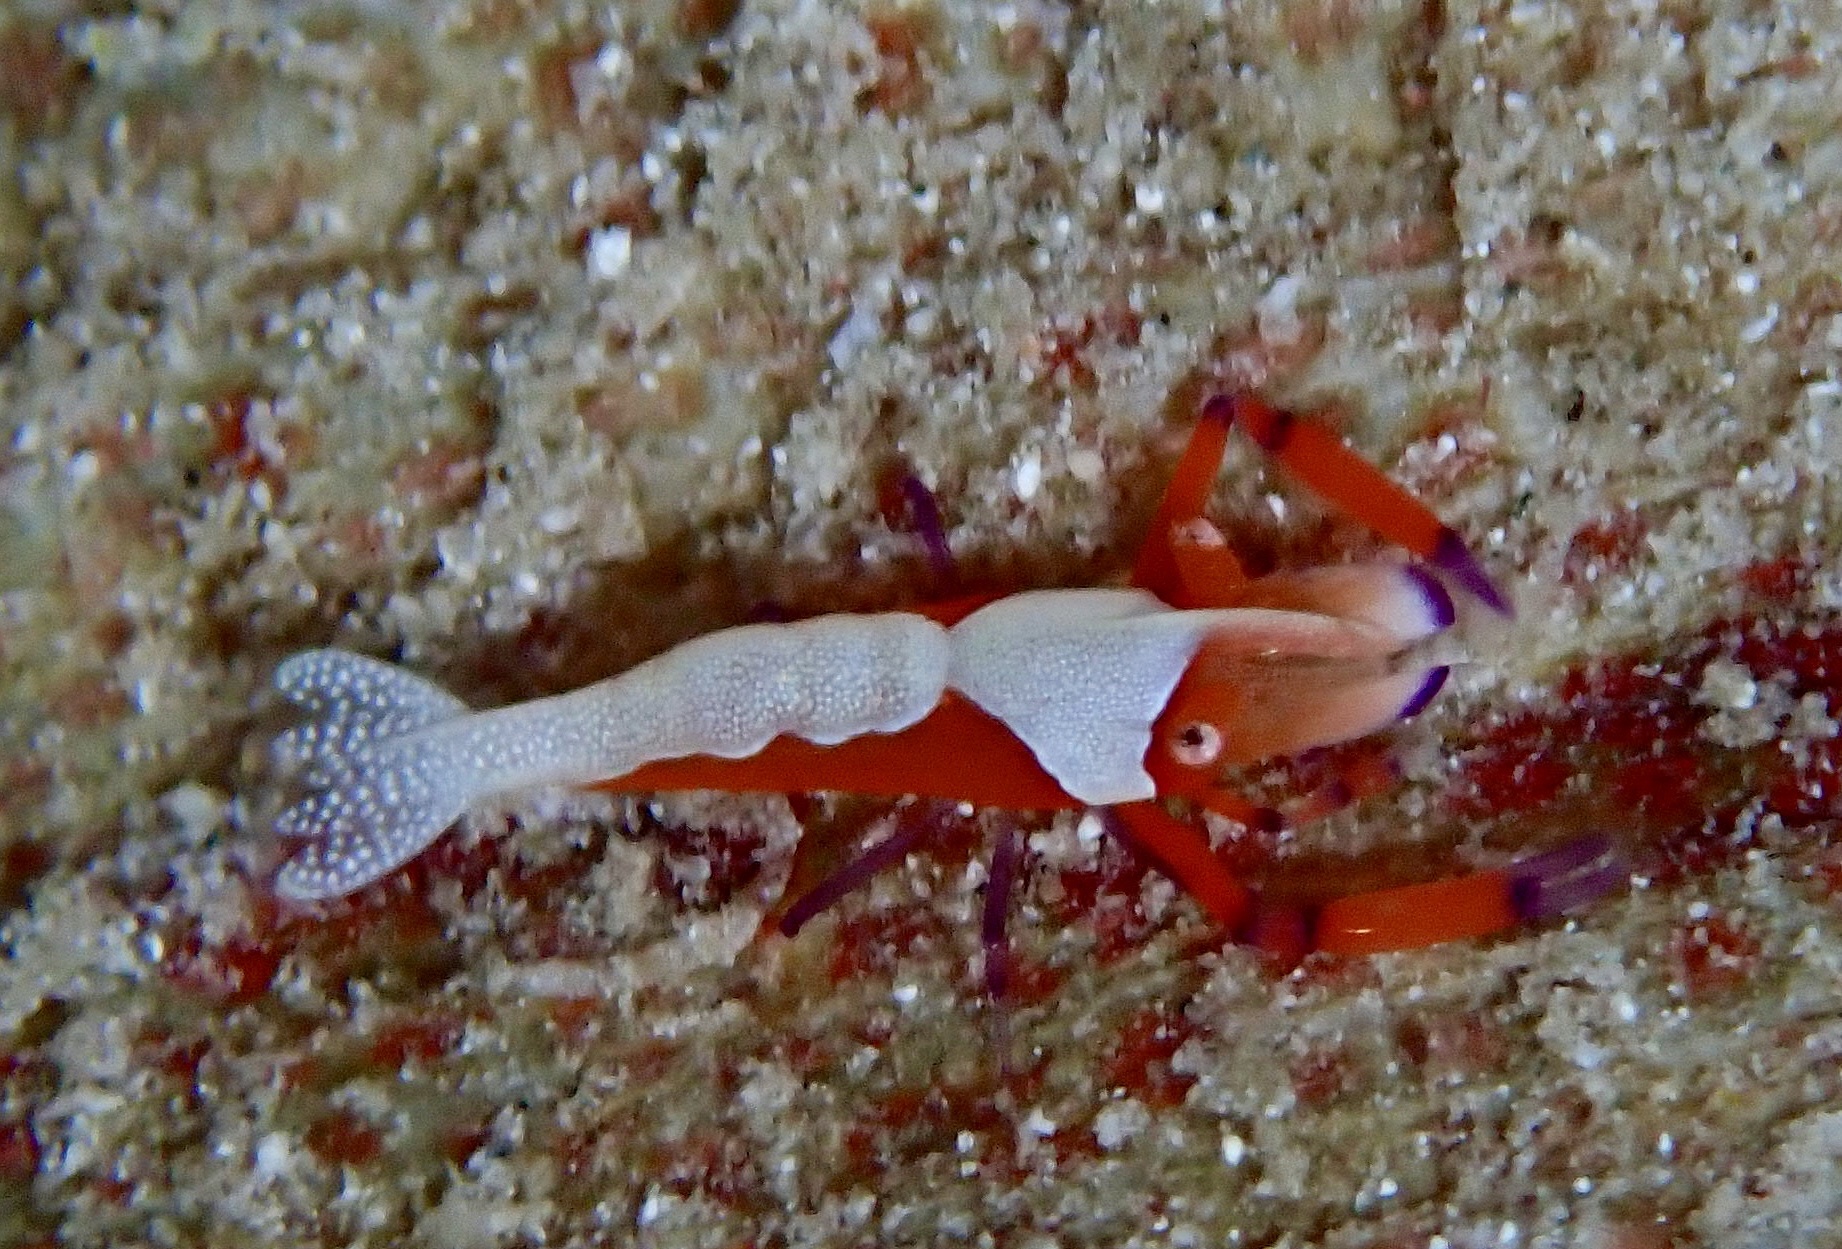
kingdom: Animalia
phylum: Arthropoda
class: Malacostraca
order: Decapoda
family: Palaemonidae
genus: Periclimenes
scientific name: Periclimenes rex
